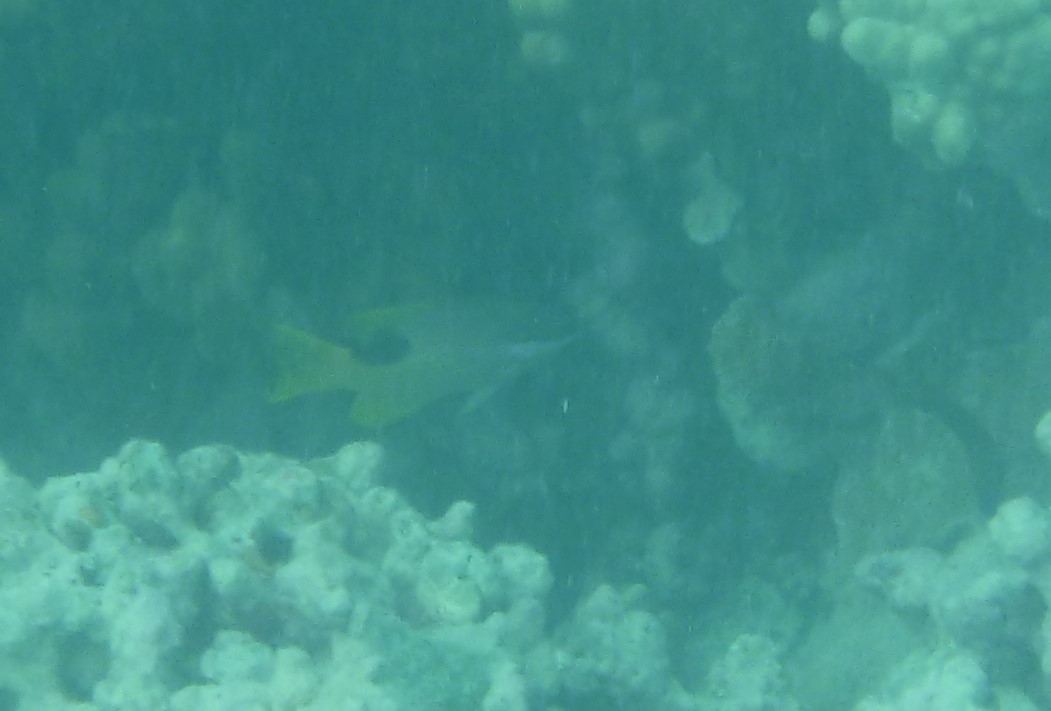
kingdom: Animalia
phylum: Chordata
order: Perciformes
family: Labridae
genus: Bodianus
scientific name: Bodianus albotaeniatus
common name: Hawaiian hogfish
